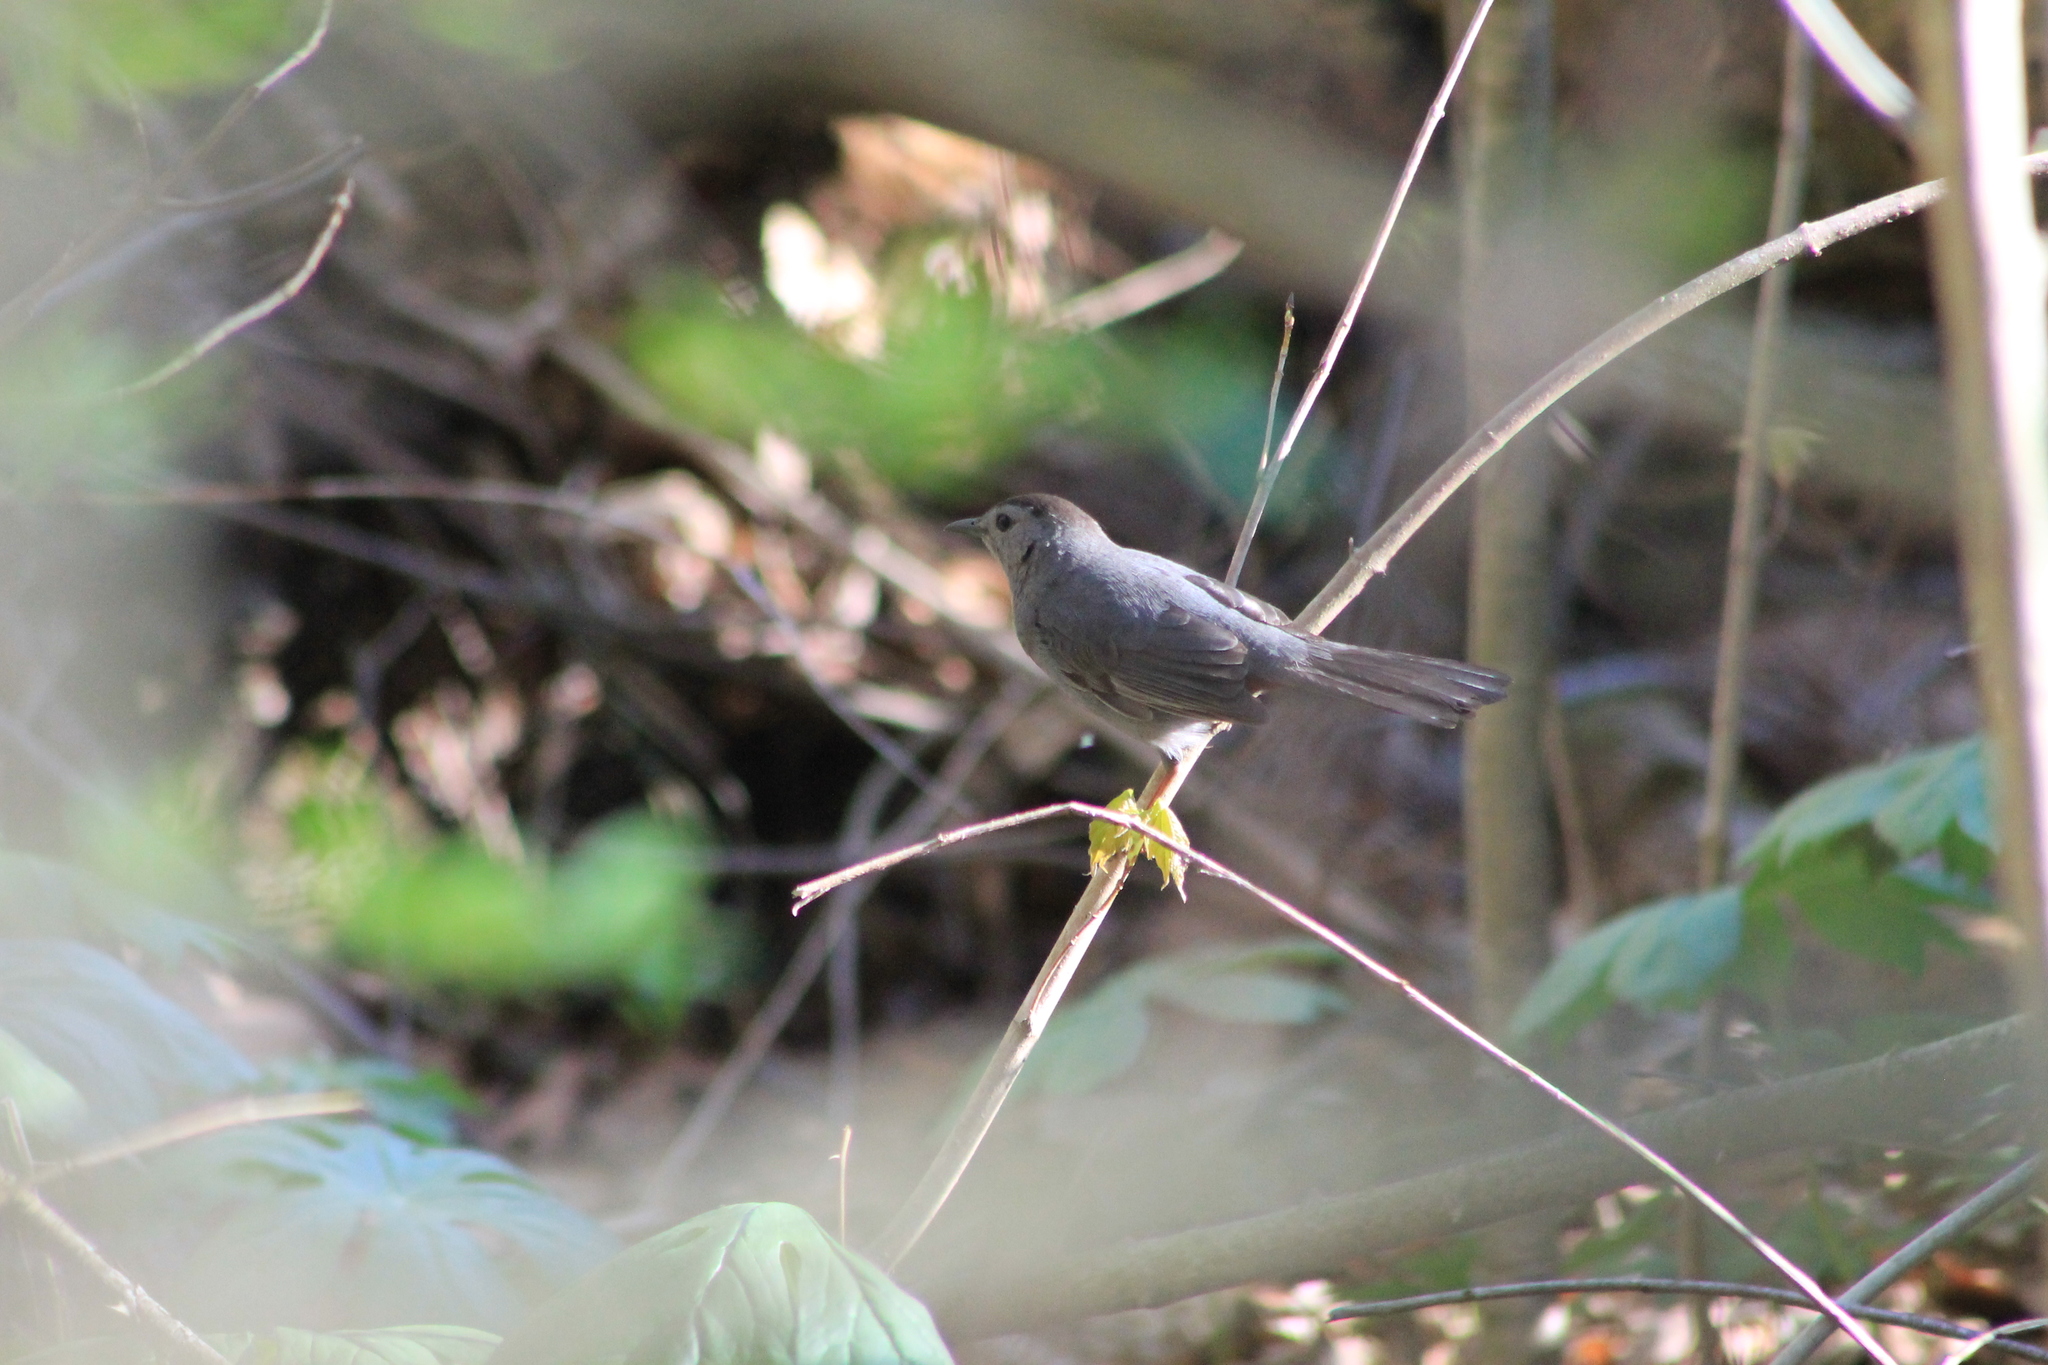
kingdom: Animalia
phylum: Chordata
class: Aves
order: Passeriformes
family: Mimidae
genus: Dumetella
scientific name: Dumetella carolinensis
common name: Gray catbird
